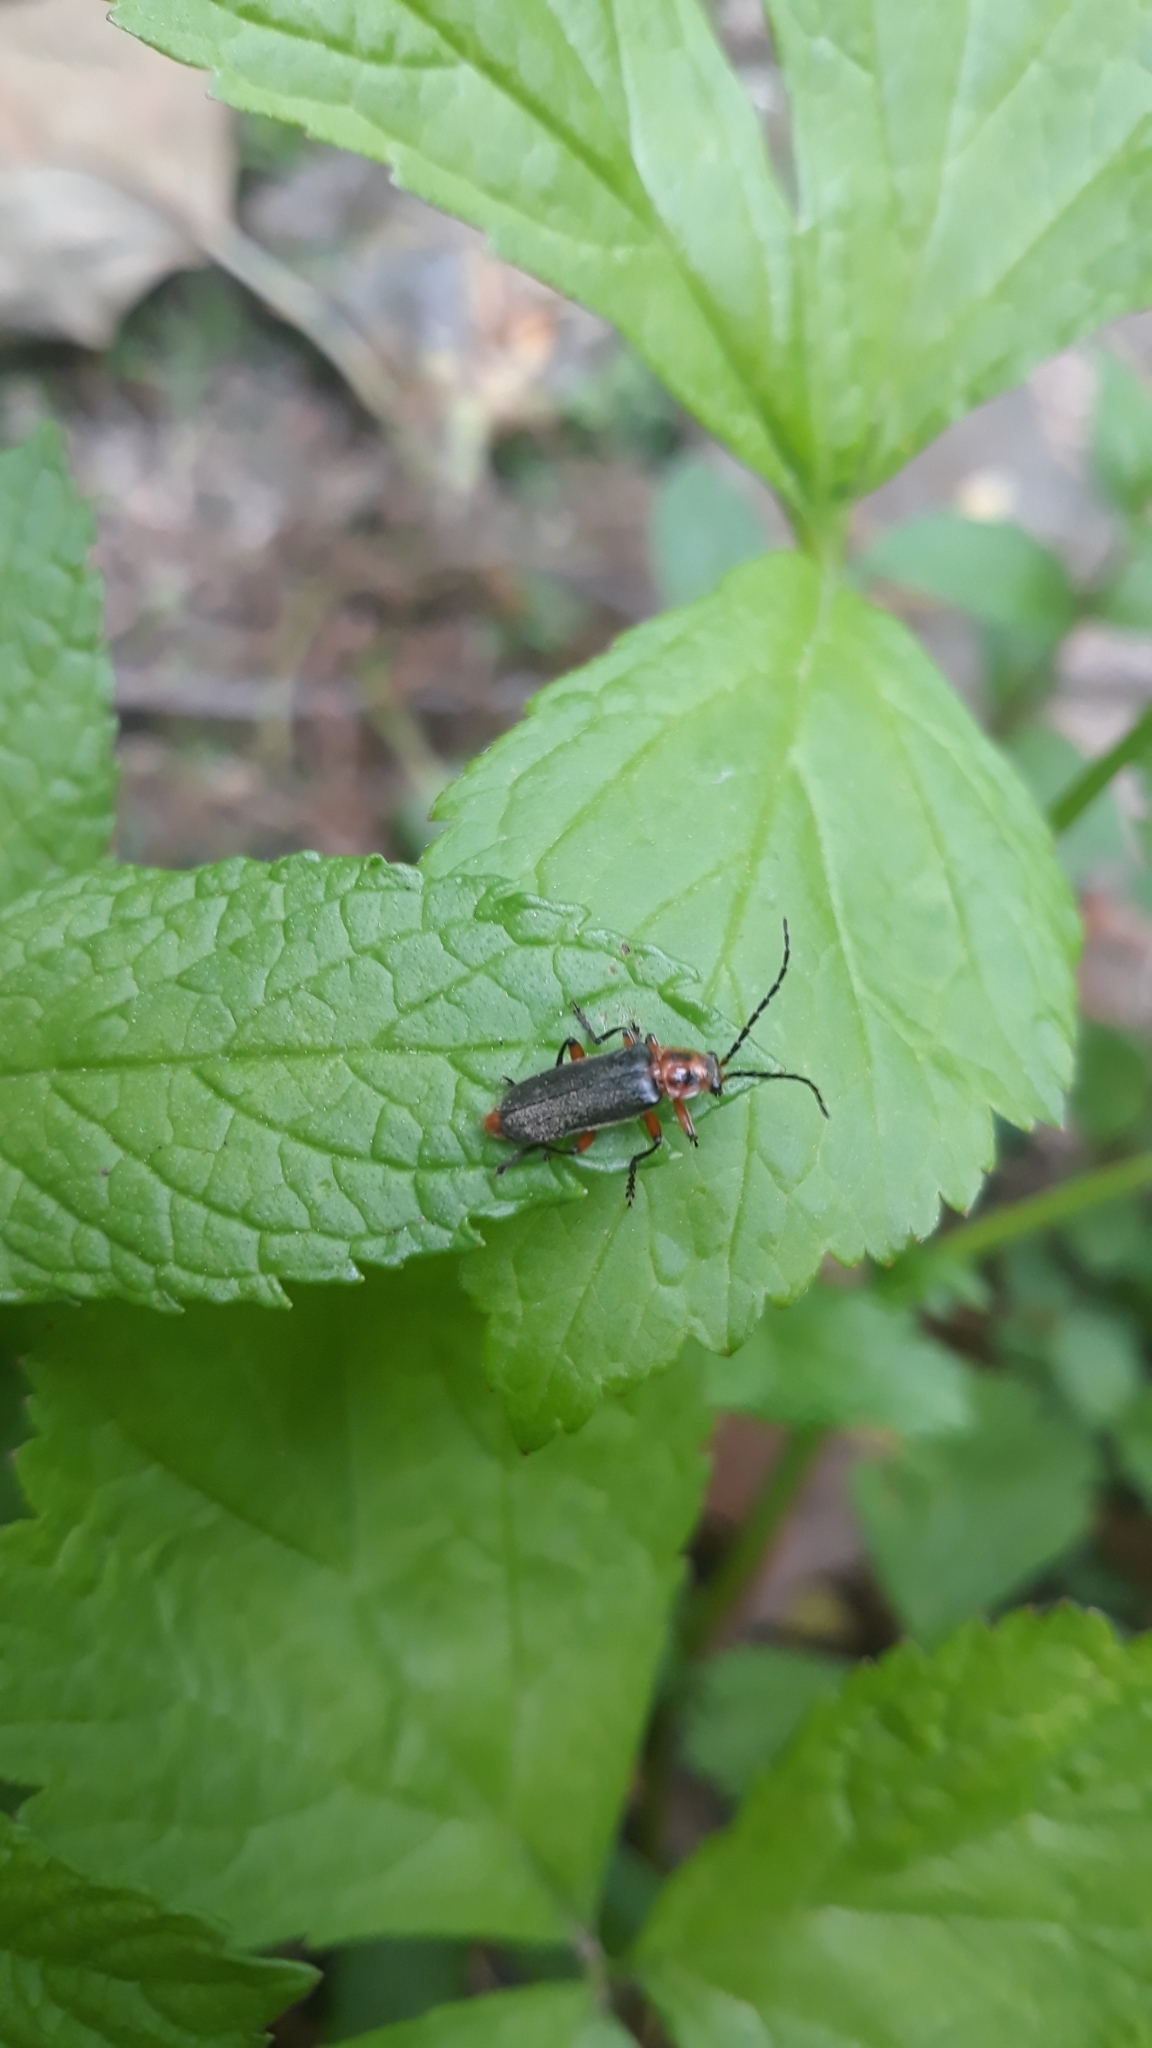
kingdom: Animalia
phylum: Arthropoda
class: Insecta
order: Coleoptera
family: Cantharidae
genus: Atalantycha
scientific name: Atalantycha bilineata
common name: Two-lined leatherwing
